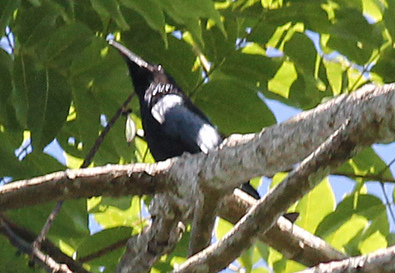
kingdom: Animalia
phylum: Chordata
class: Aves
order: Passeriformes
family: Dicruridae
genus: Dicrurus
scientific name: Dicrurus hottentottus
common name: Hair-crested drongo
